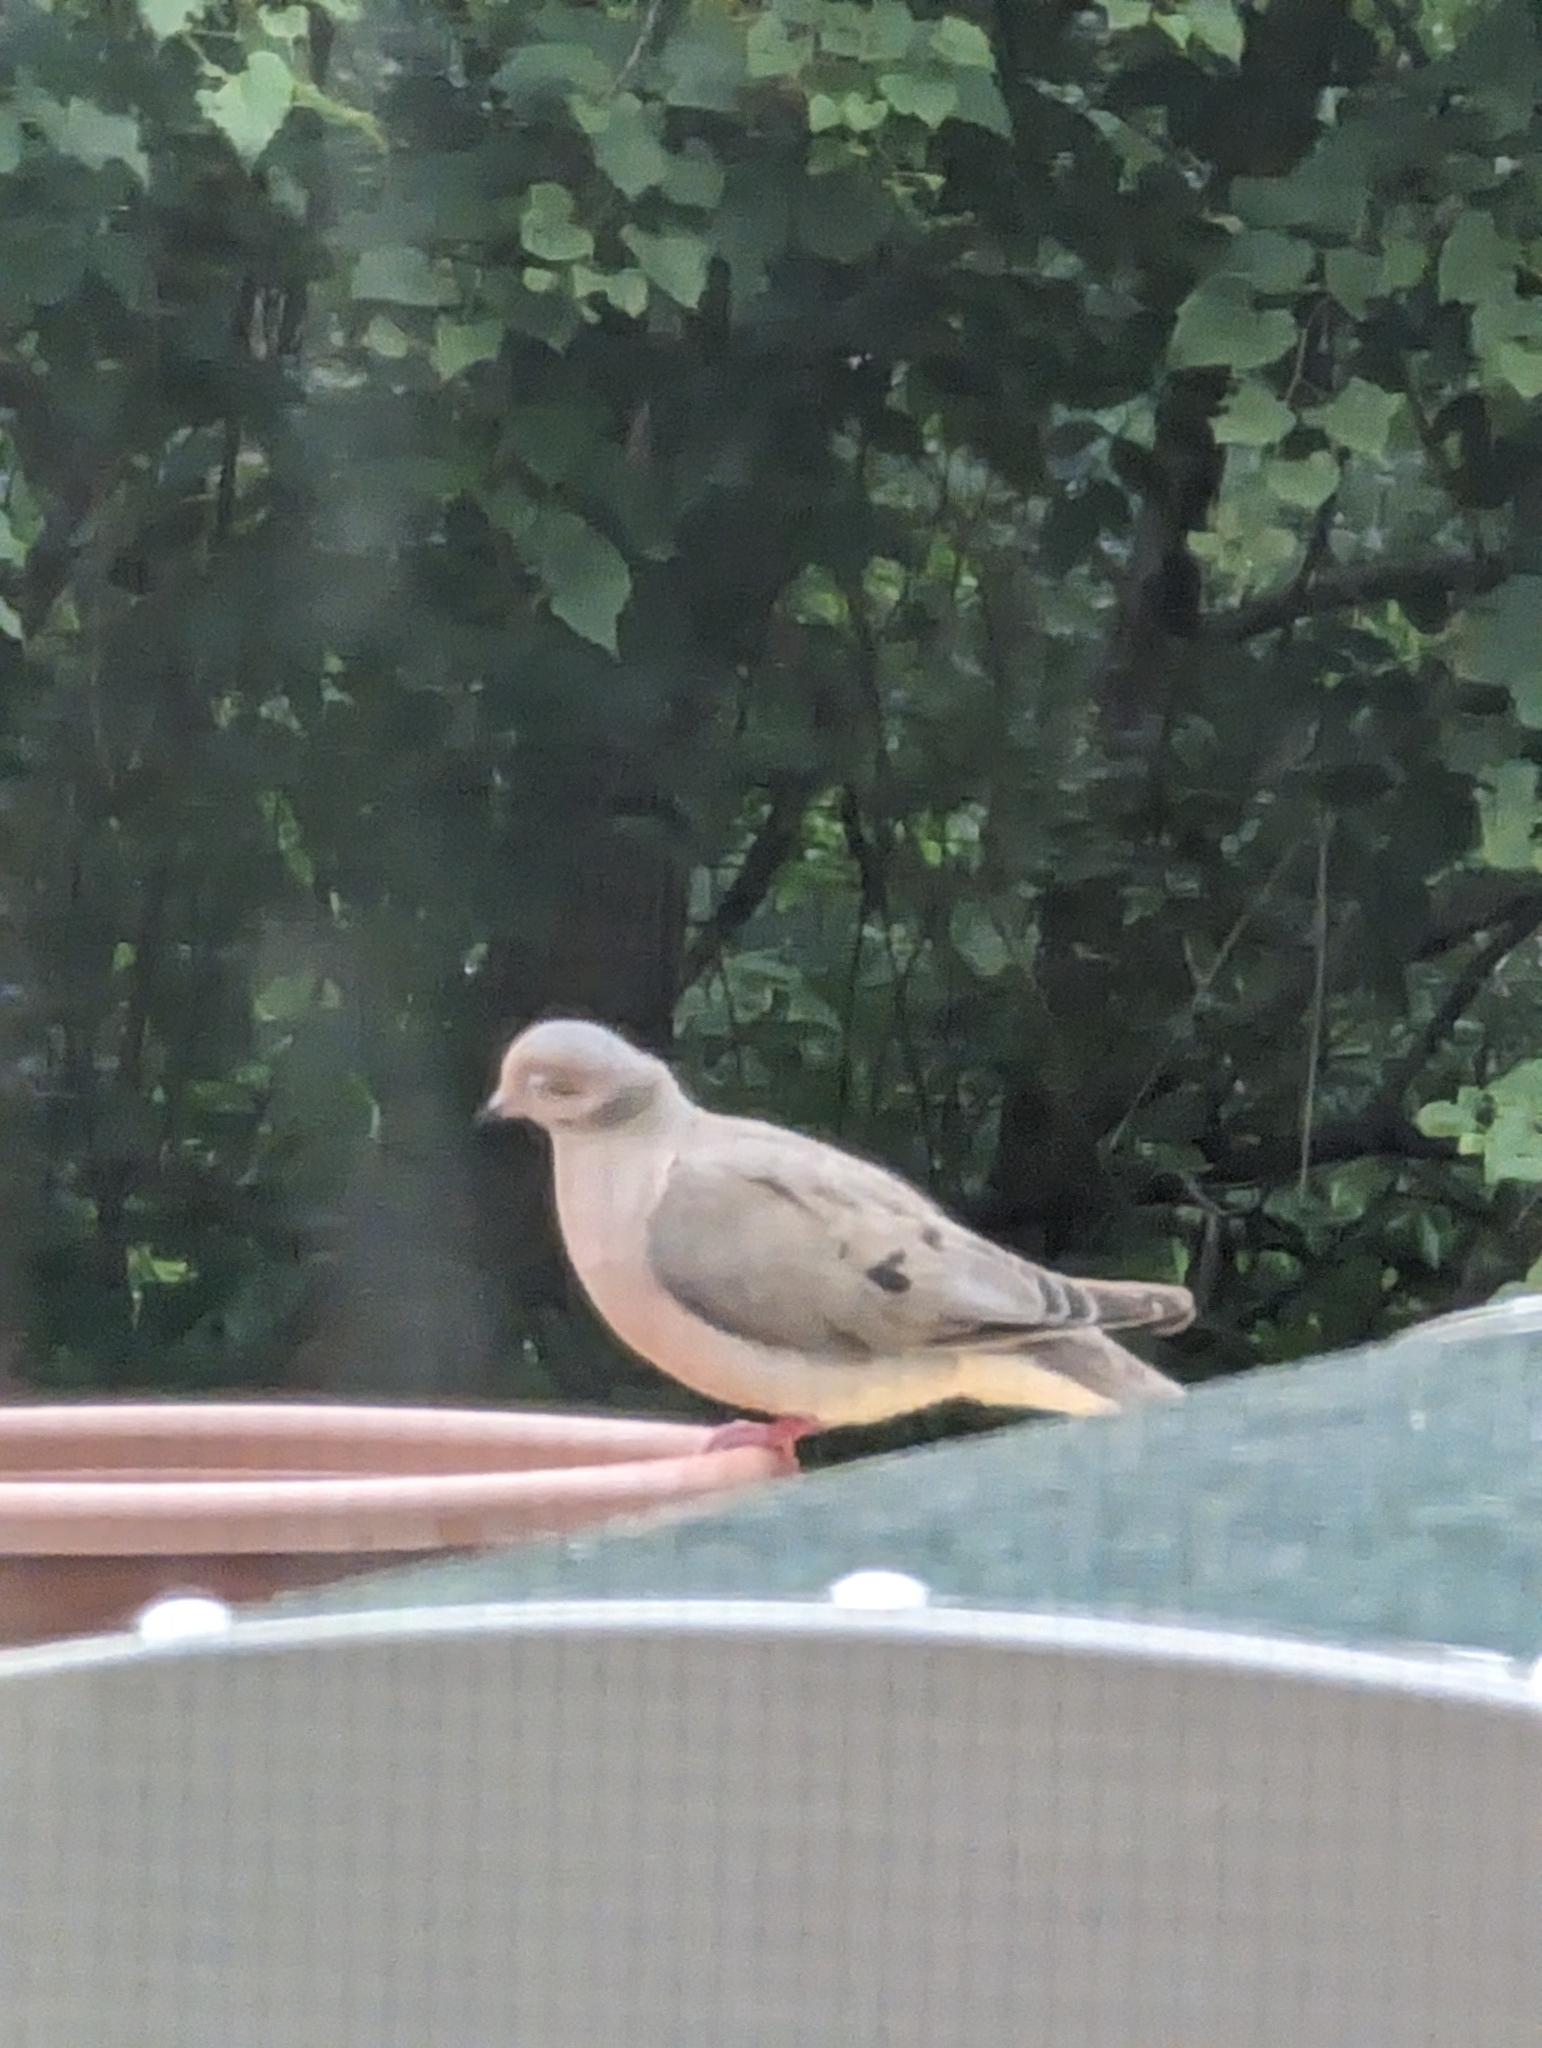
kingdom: Animalia
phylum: Chordata
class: Aves
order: Columbiformes
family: Columbidae
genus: Zenaida
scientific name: Zenaida macroura
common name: Mourning dove
